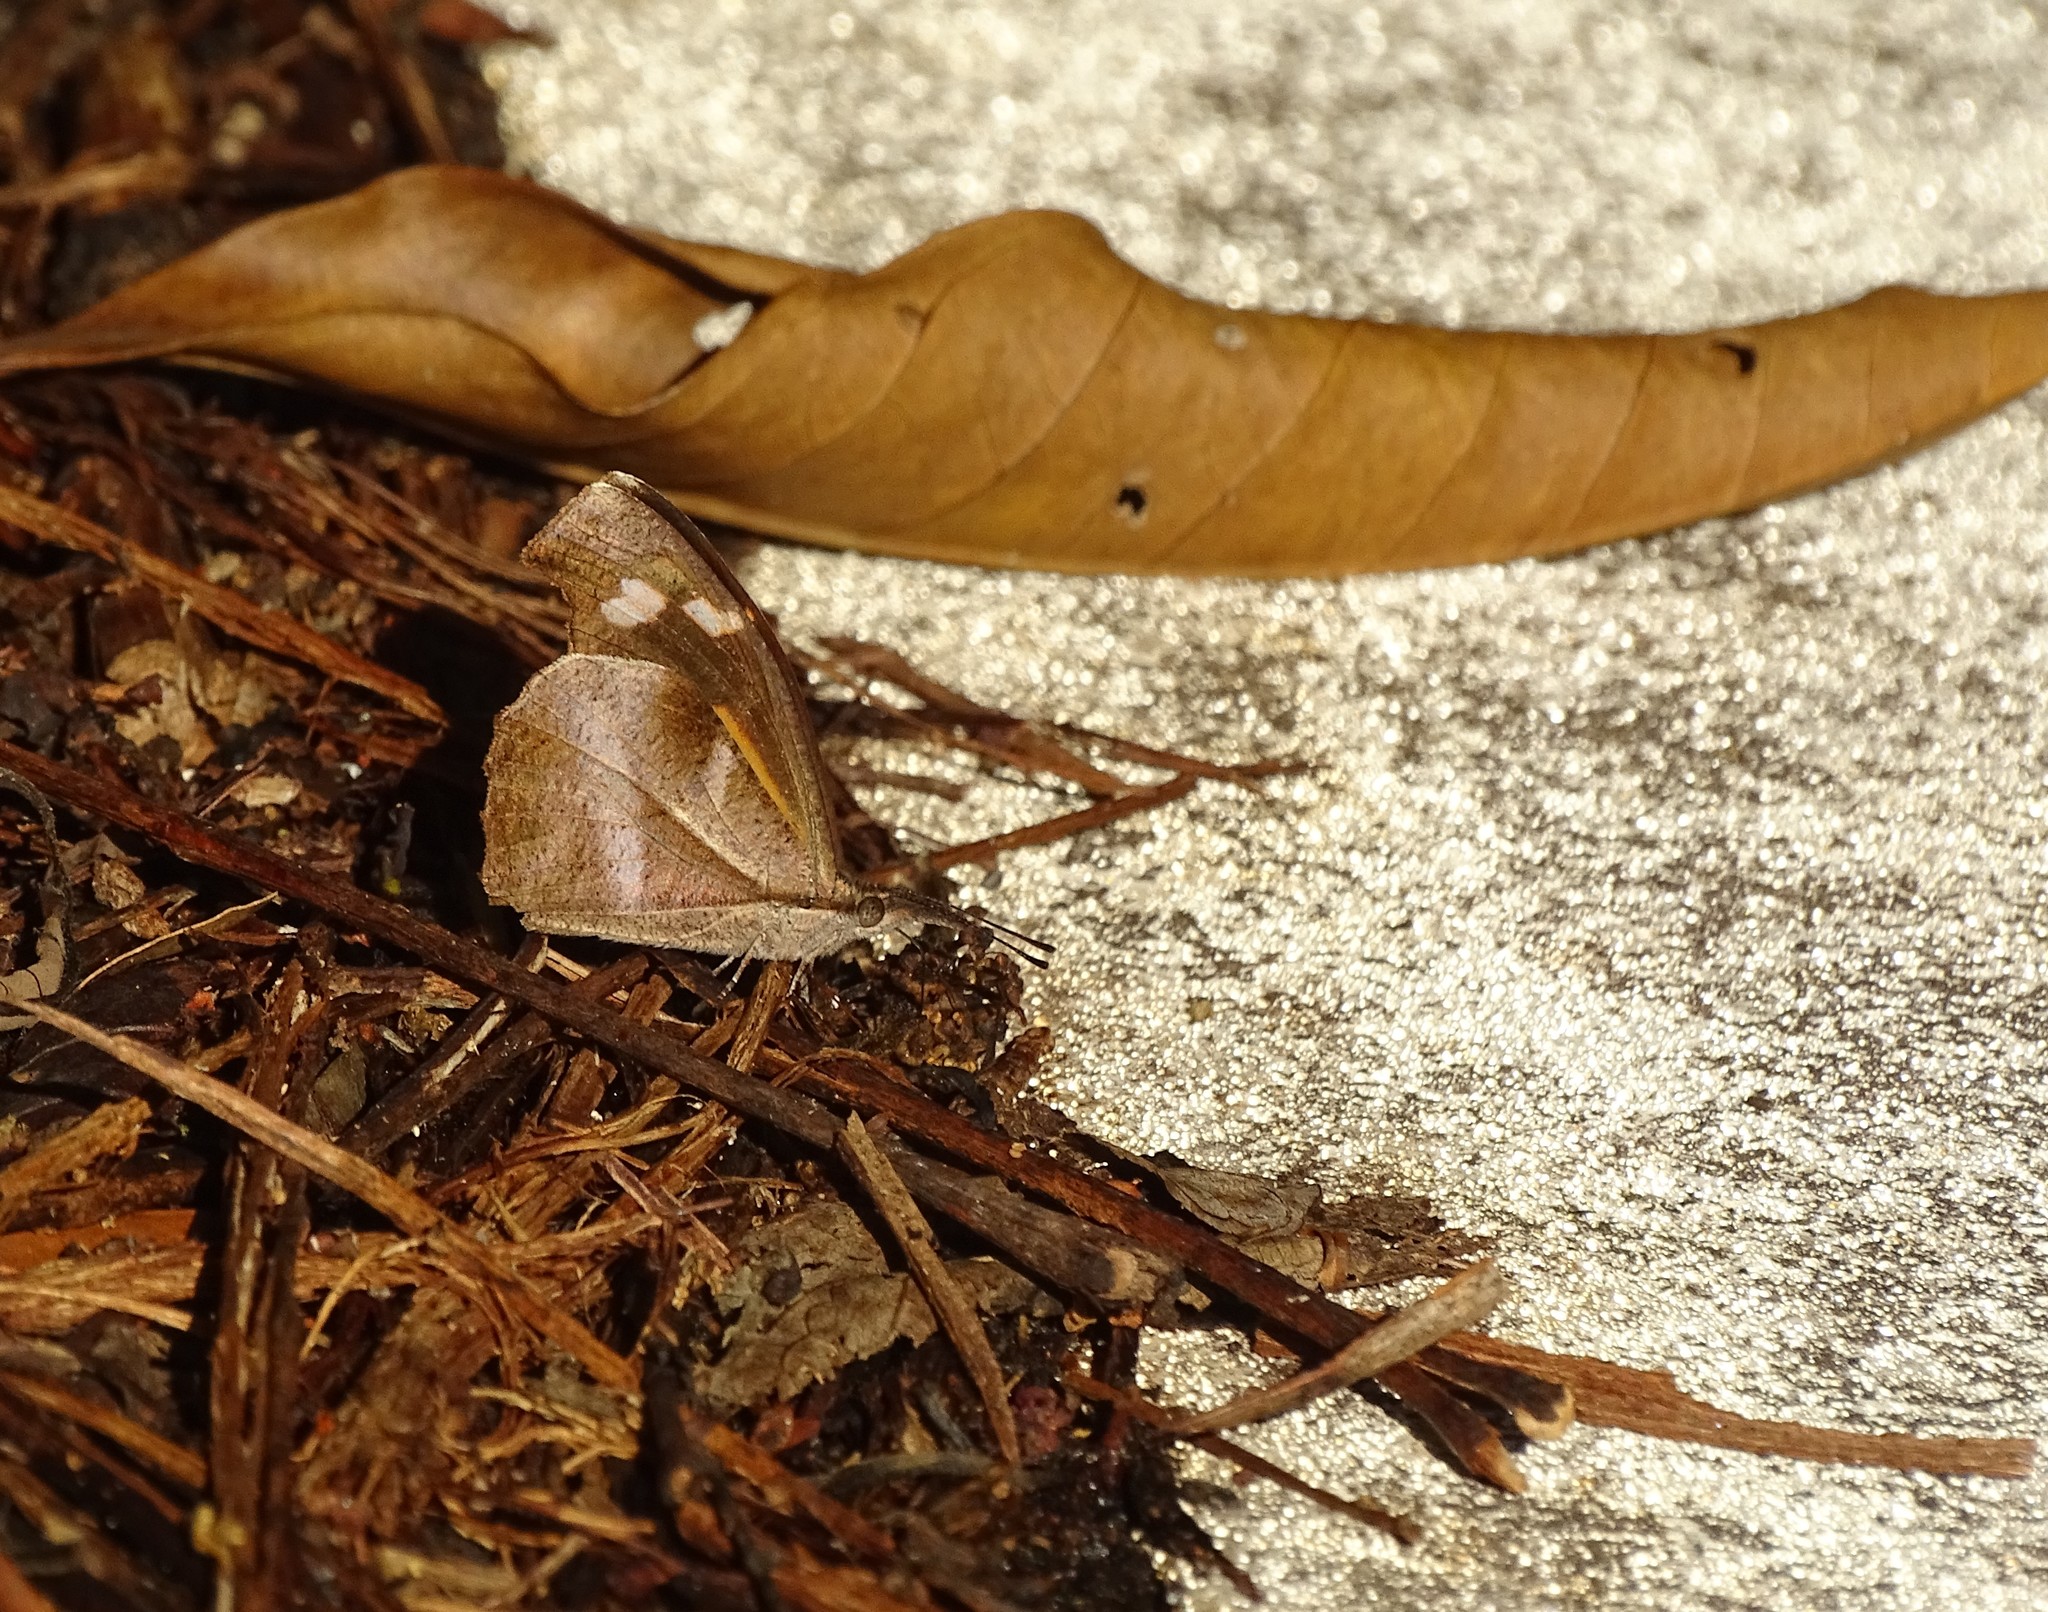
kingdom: Animalia
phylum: Arthropoda
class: Insecta
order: Lepidoptera
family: Nymphalidae
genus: Libythea
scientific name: Libythea myrrha
